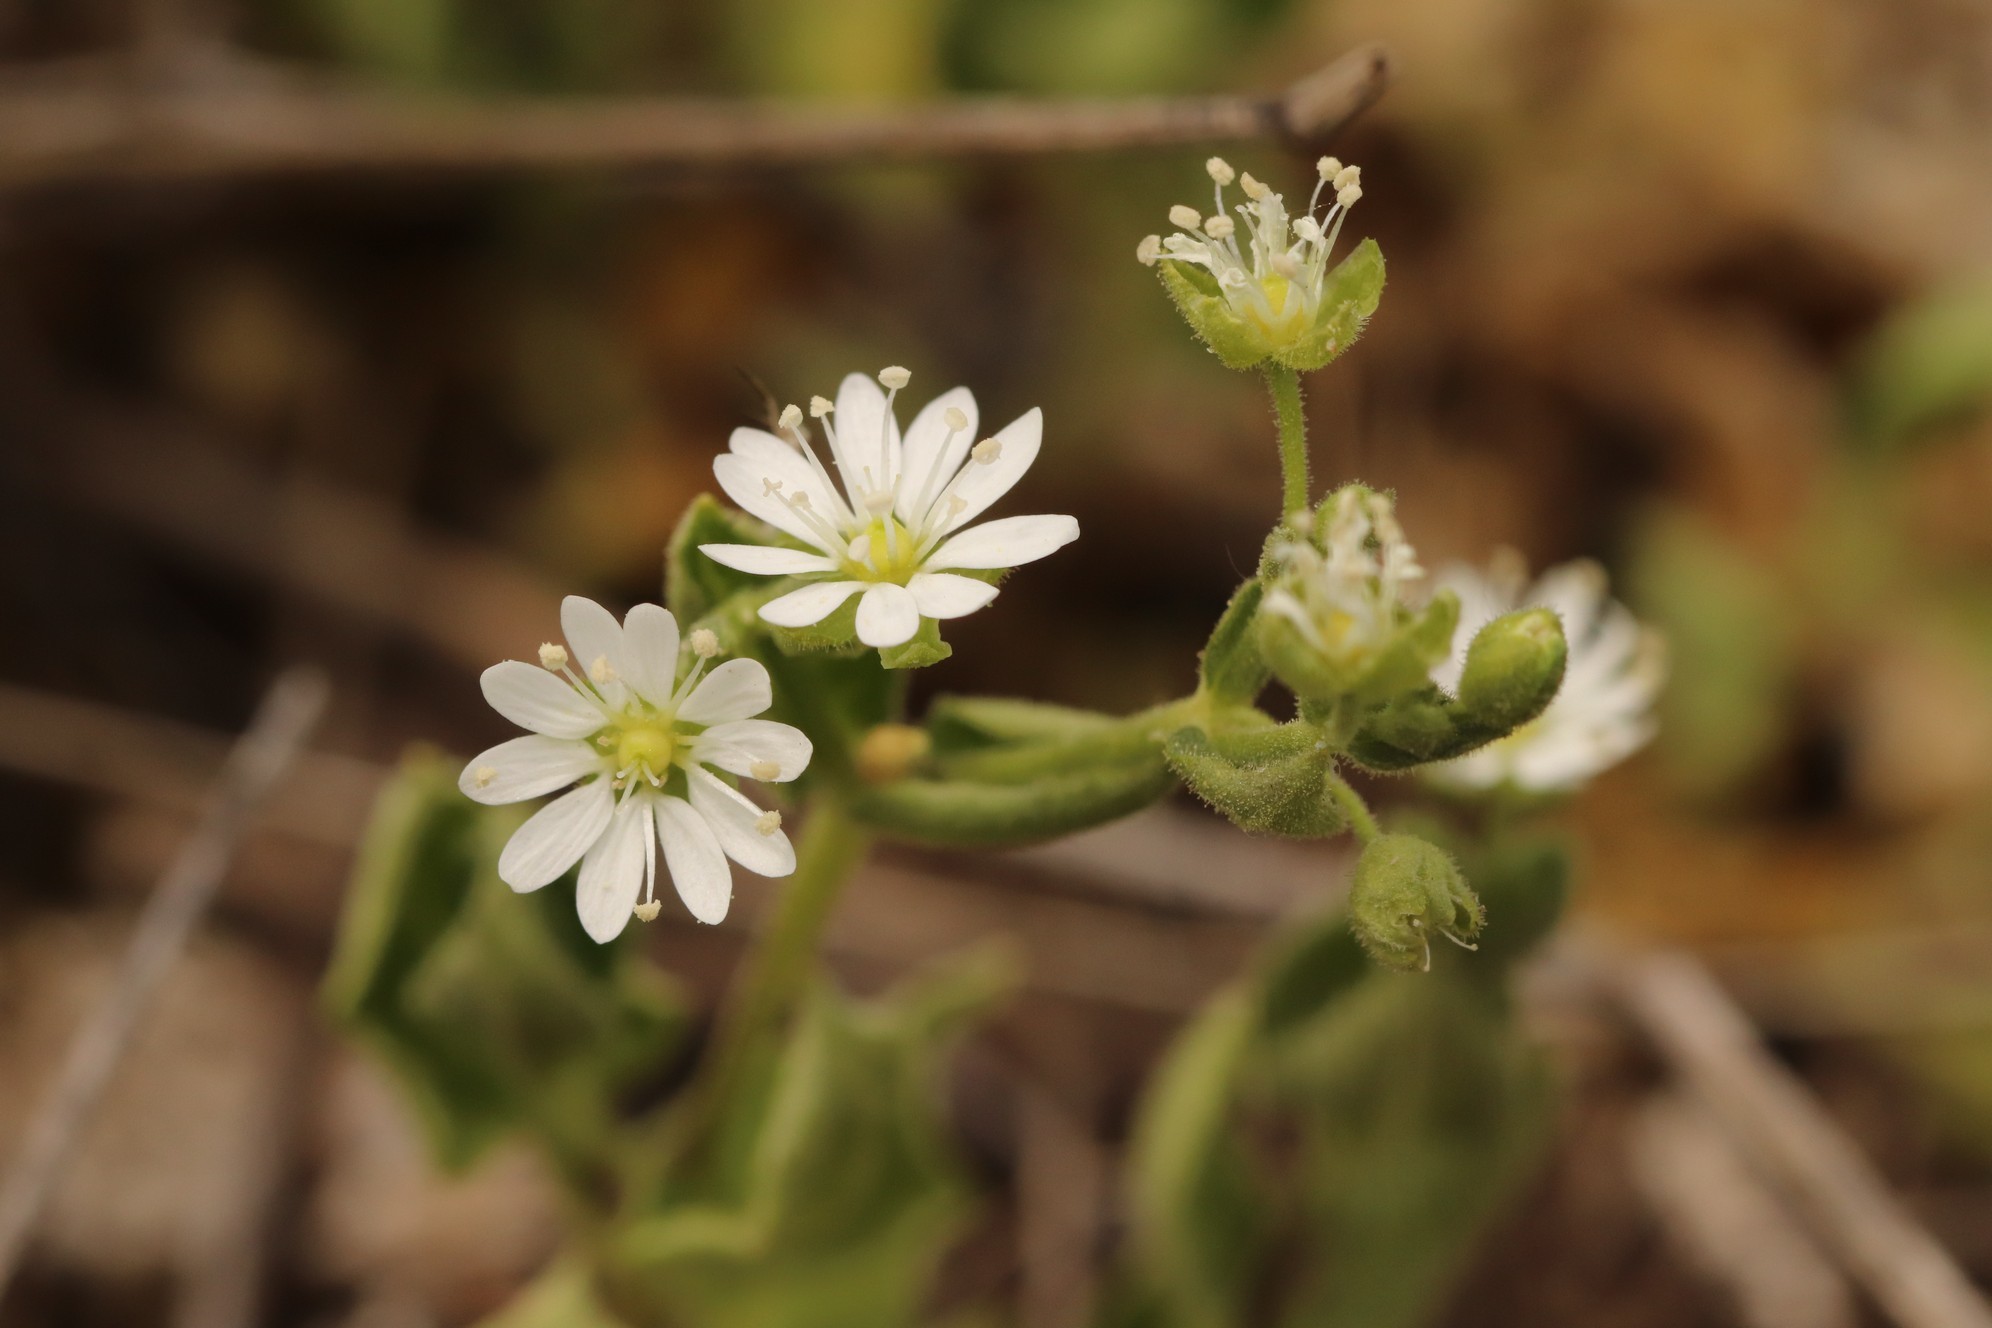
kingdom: Plantae
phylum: Tracheophyta
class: Magnoliopsida
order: Caryophyllales
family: Caryophyllaceae
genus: Stellaria
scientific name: Stellaria bungeana
